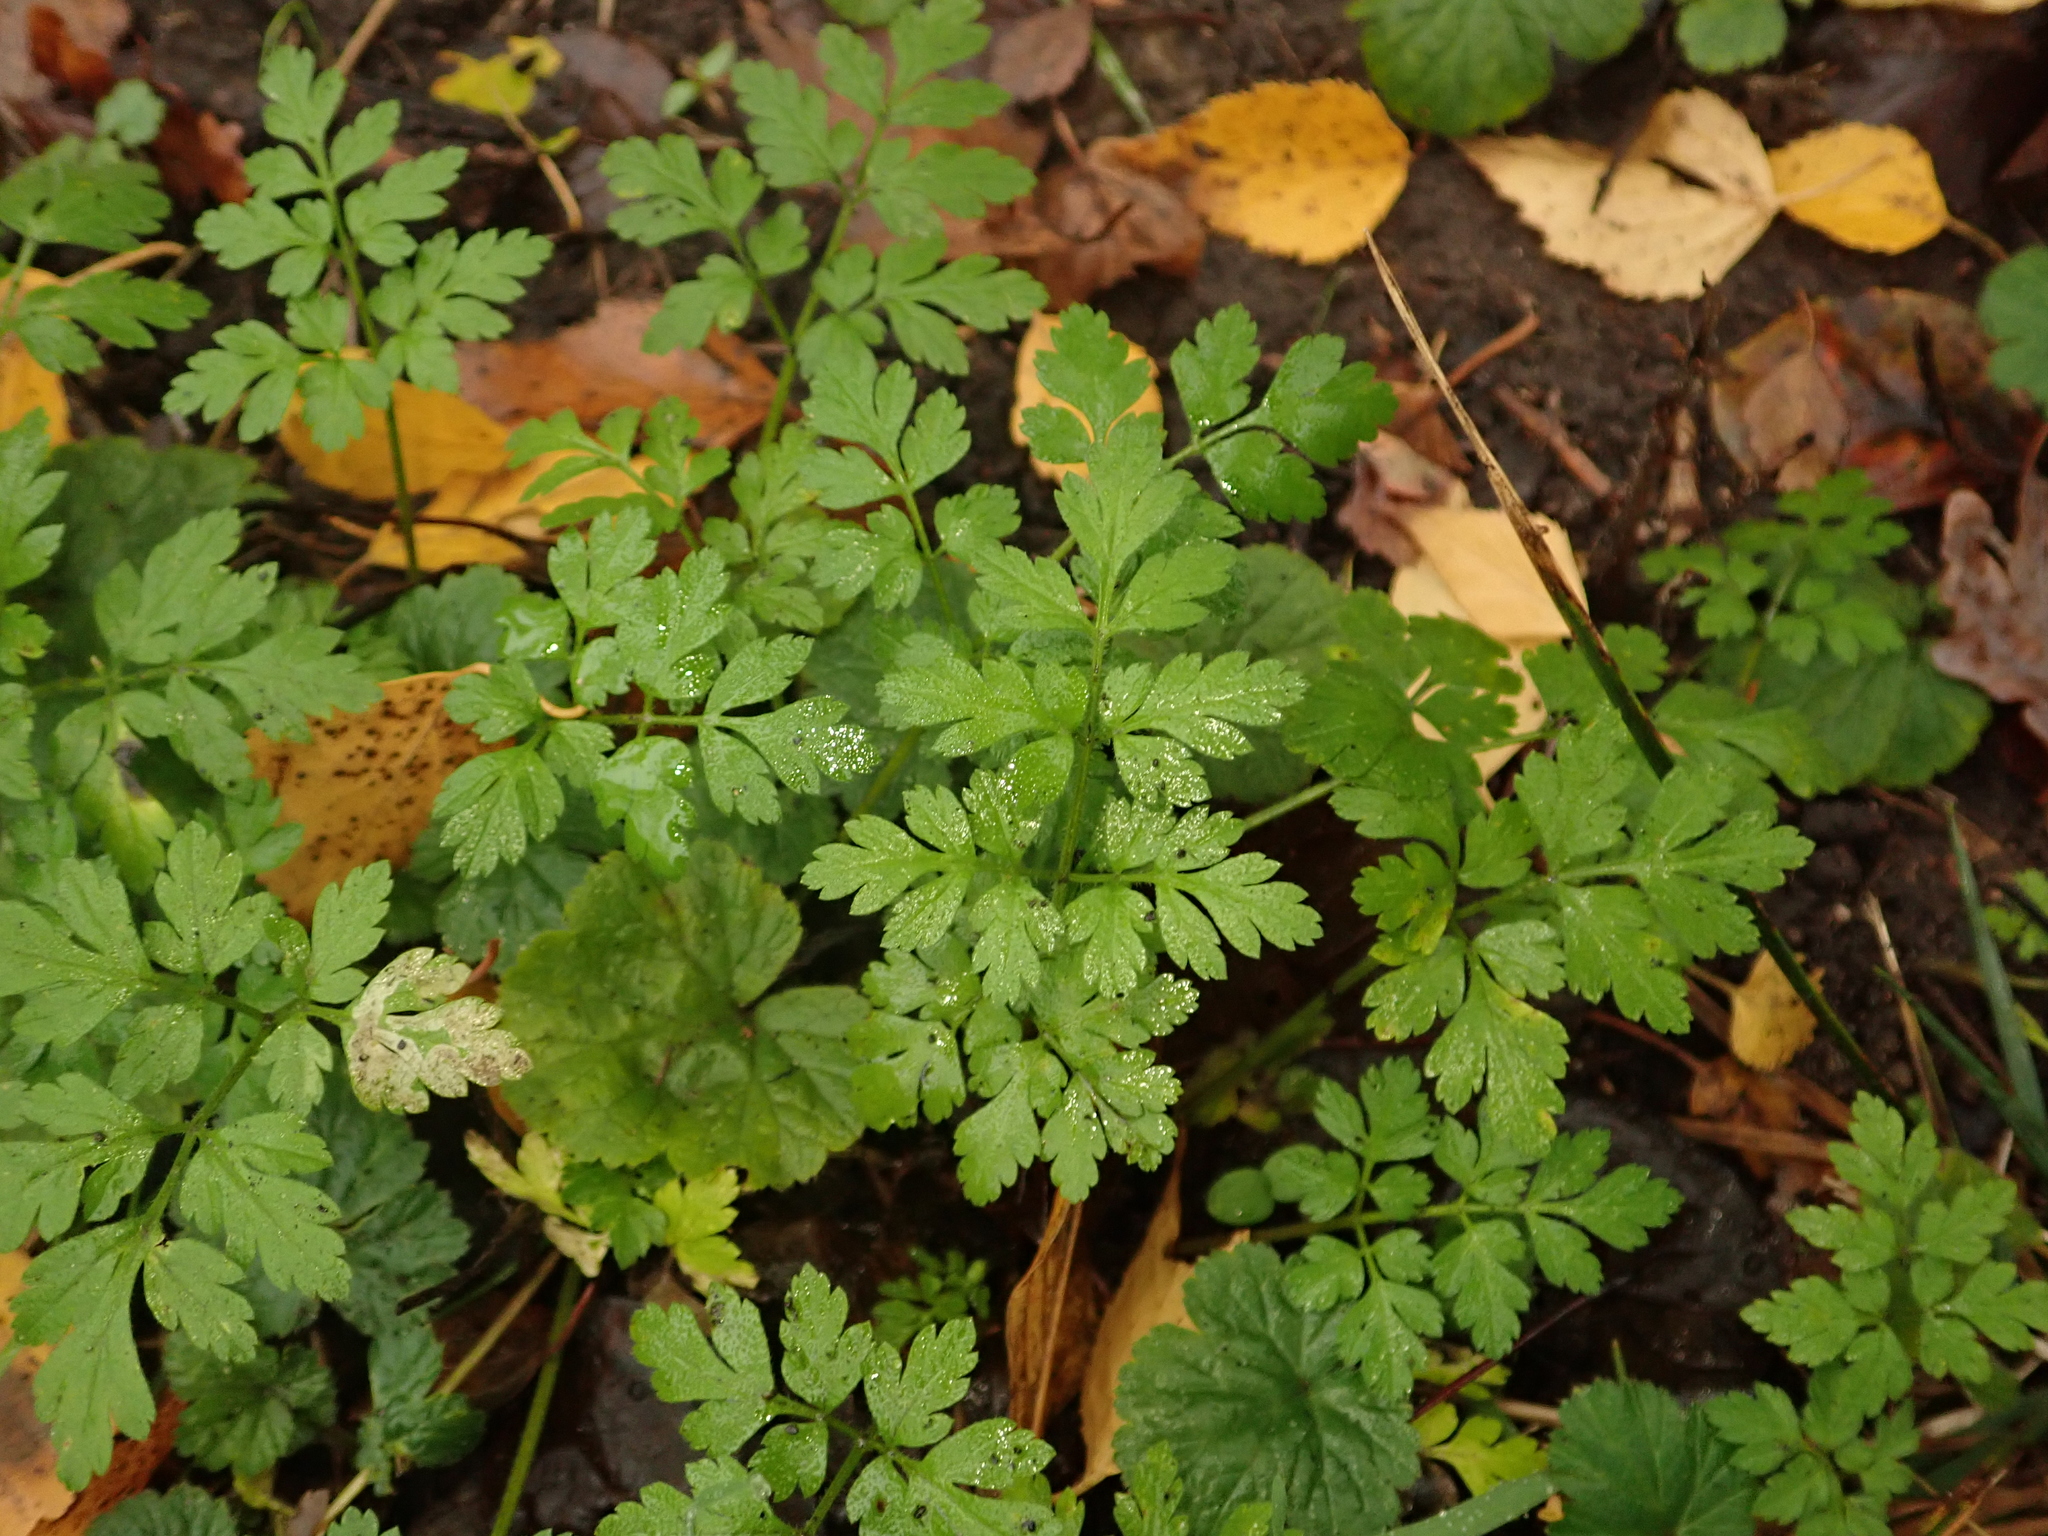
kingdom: Plantae
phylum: Tracheophyta
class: Magnoliopsida
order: Apiales
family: Apiaceae
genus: Chaerophyllum
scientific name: Chaerophyllum temulum
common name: Rough chervil
